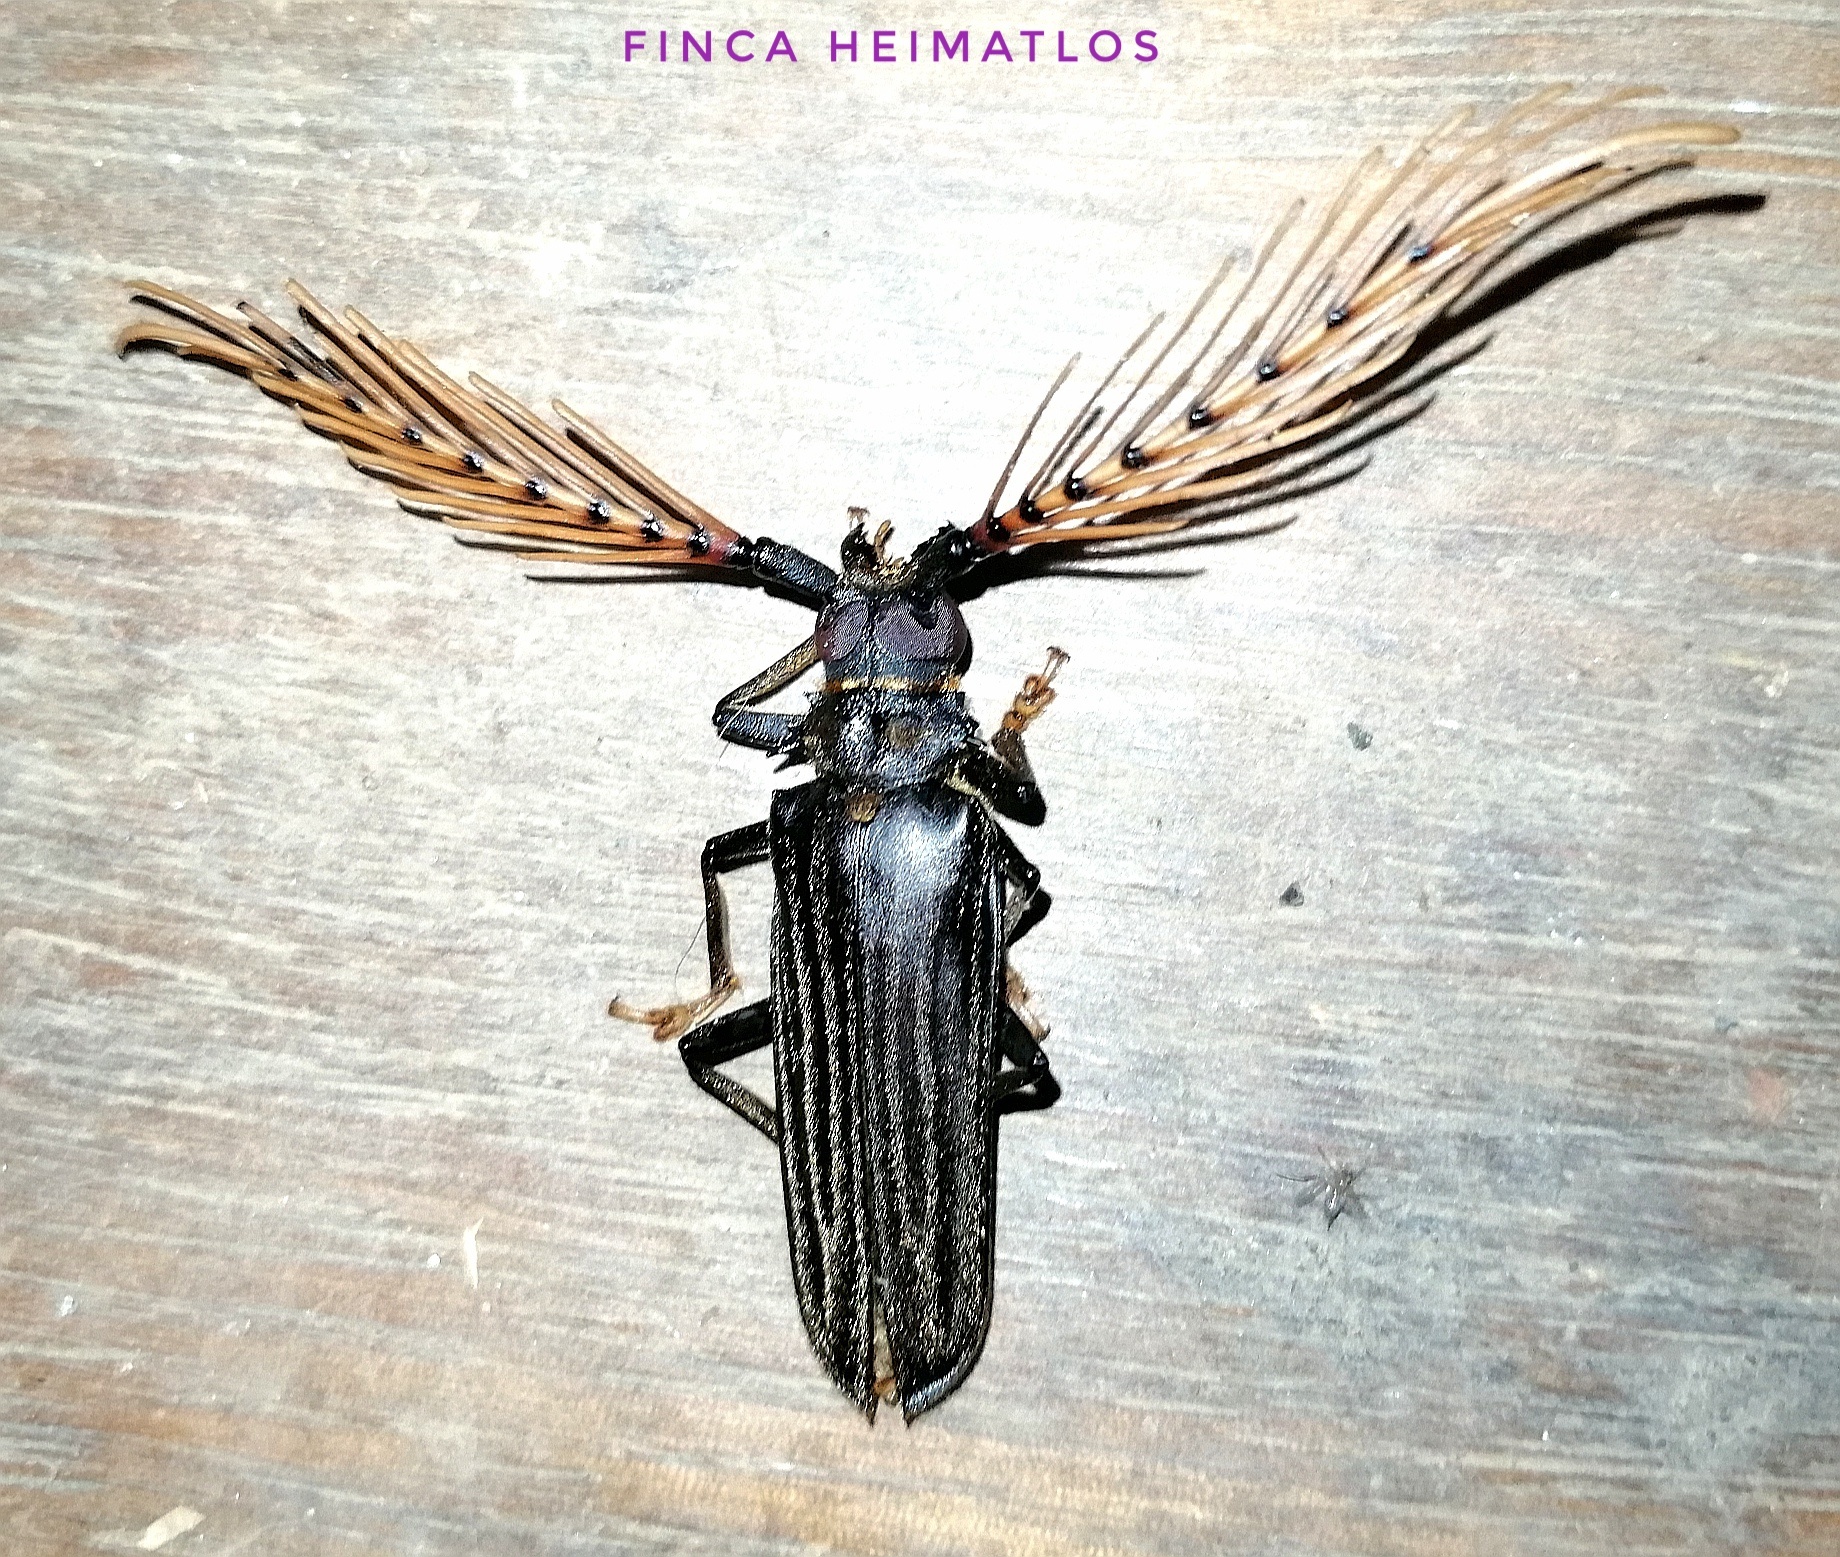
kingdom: Animalia
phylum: Arthropoda
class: Insecta
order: Coleoptera
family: Cerambycidae
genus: Sarifer
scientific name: Sarifer flavirameus
